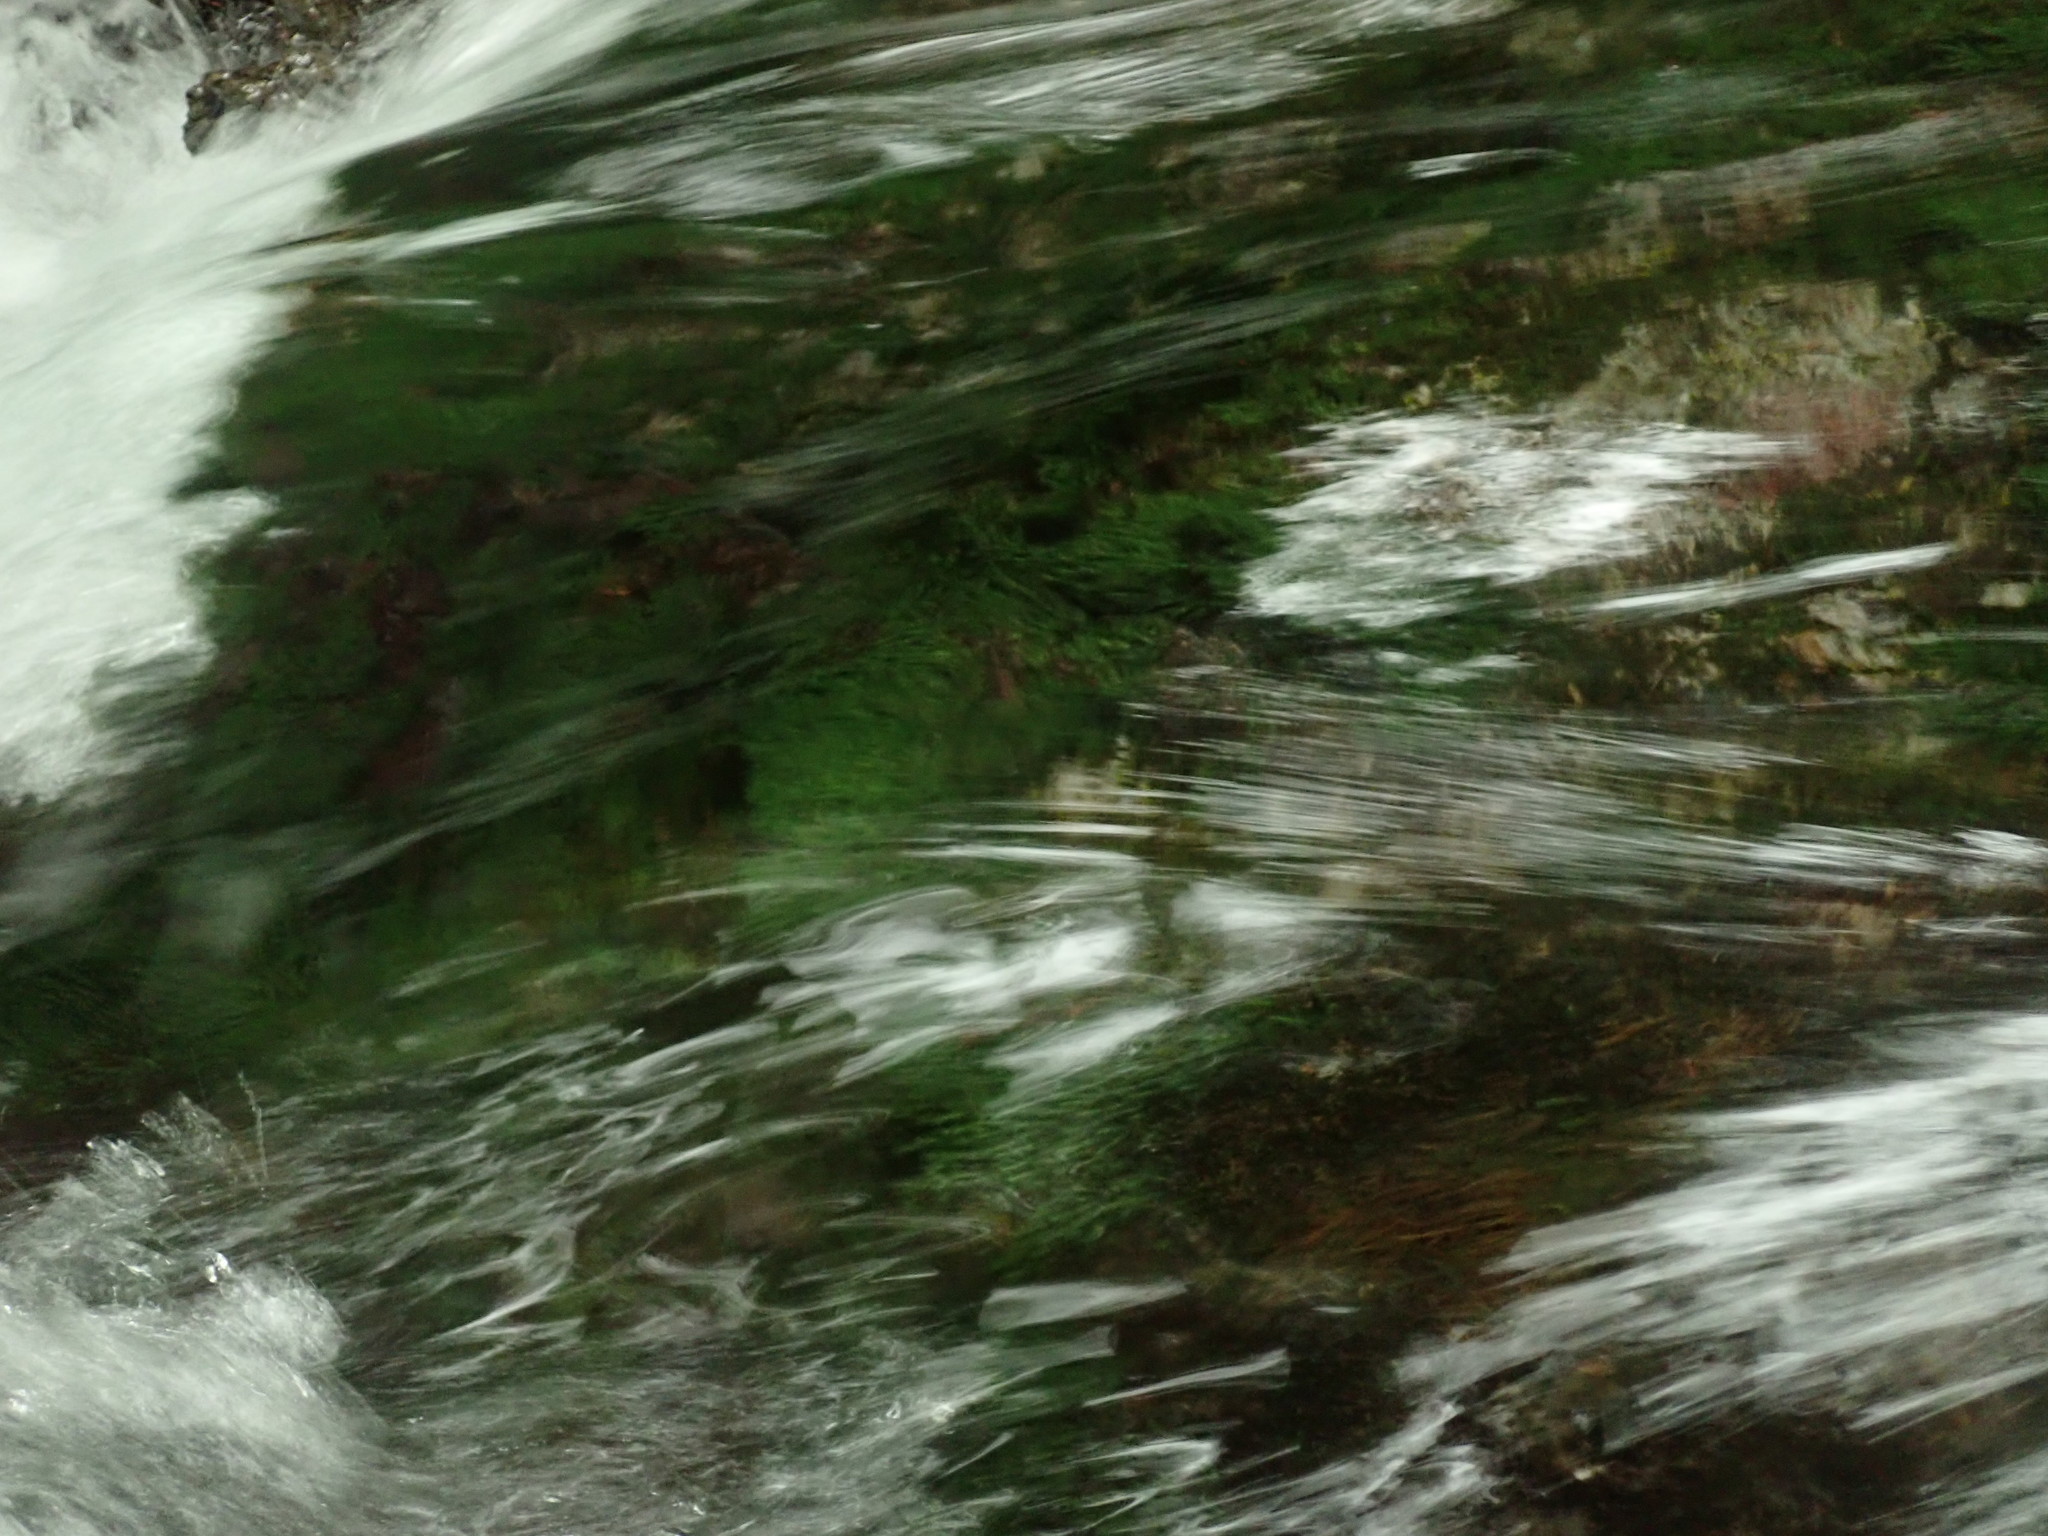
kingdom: Plantae
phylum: Bryophyta
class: Bryopsida
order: Dicranales
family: Fissidentaceae
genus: Fissidens
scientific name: Fissidens grandifrons
